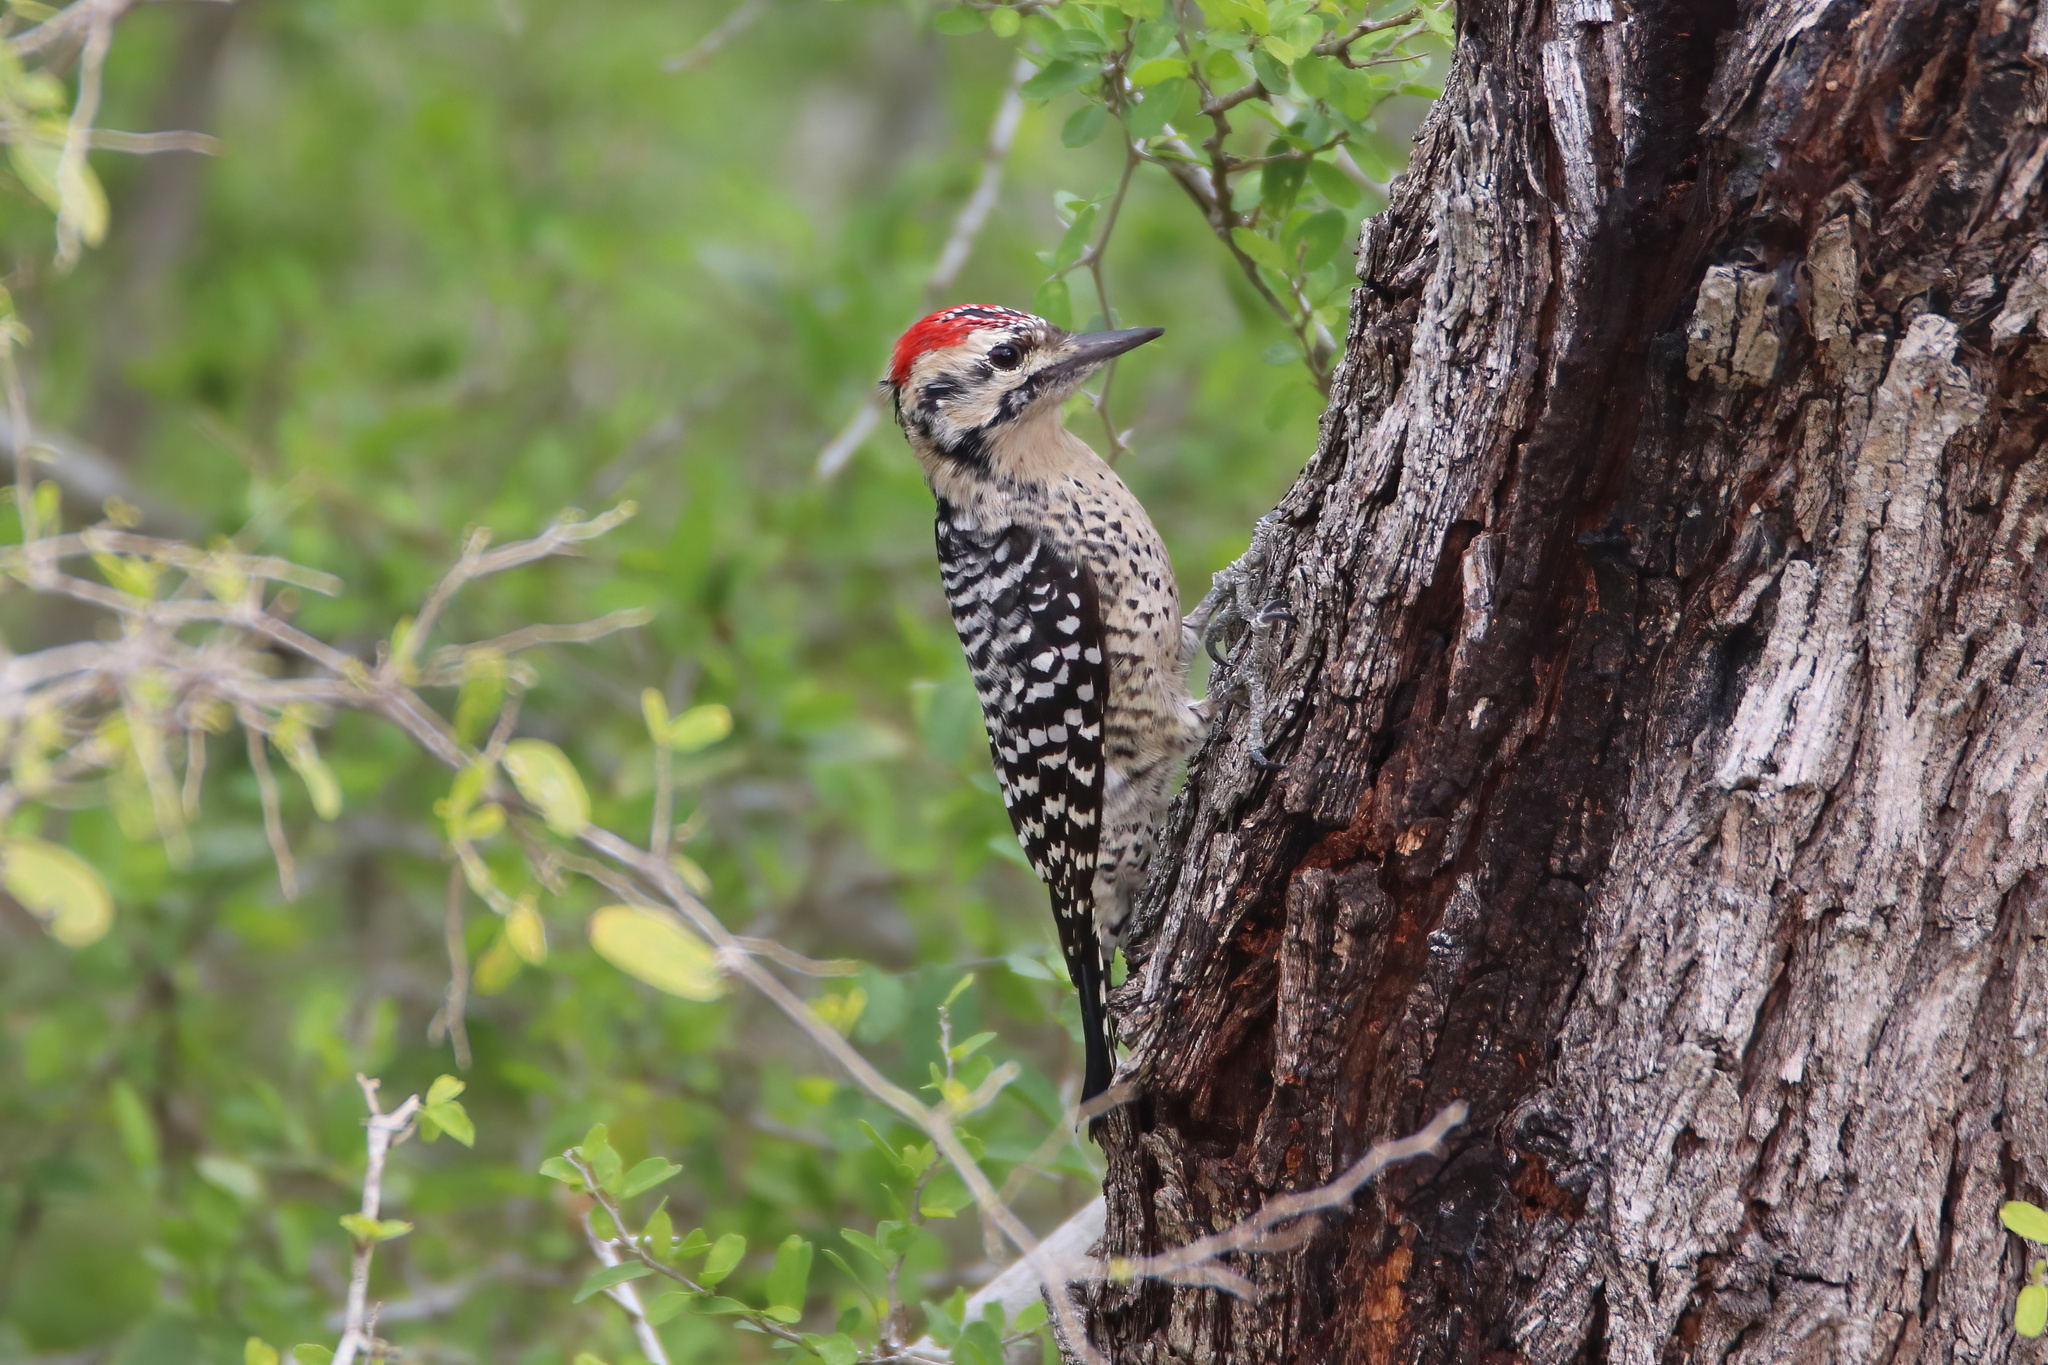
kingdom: Animalia
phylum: Chordata
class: Aves
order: Piciformes
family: Picidae
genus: Dryobates
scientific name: Dryobates scalaris
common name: Ladder-backed woodpecker
